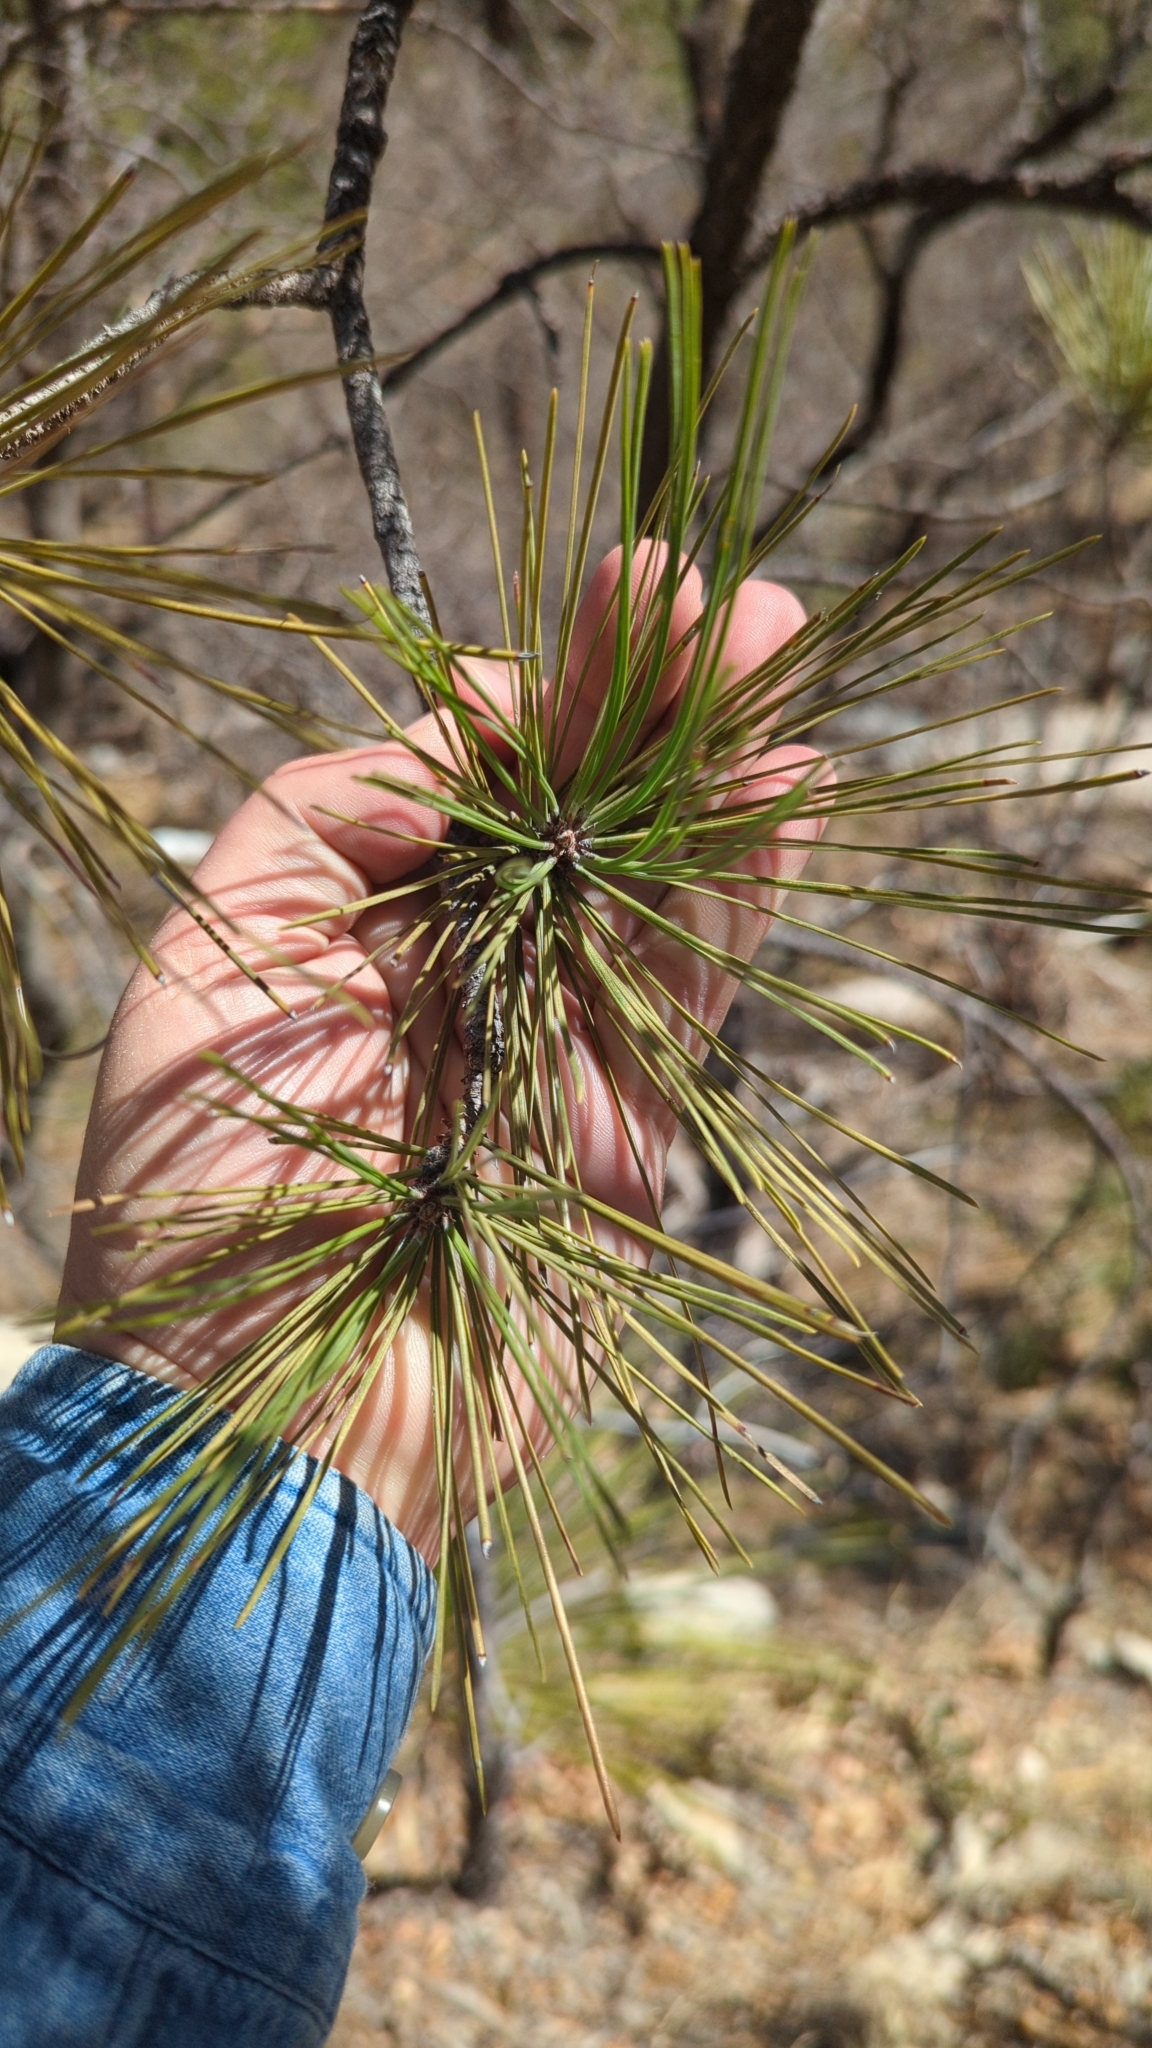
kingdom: Plantae
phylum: Tracheophyta
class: Pinopsida
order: Pinales
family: Pinaceae
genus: Pinus
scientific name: Pinus ponderosa
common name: Western yellow-pine
